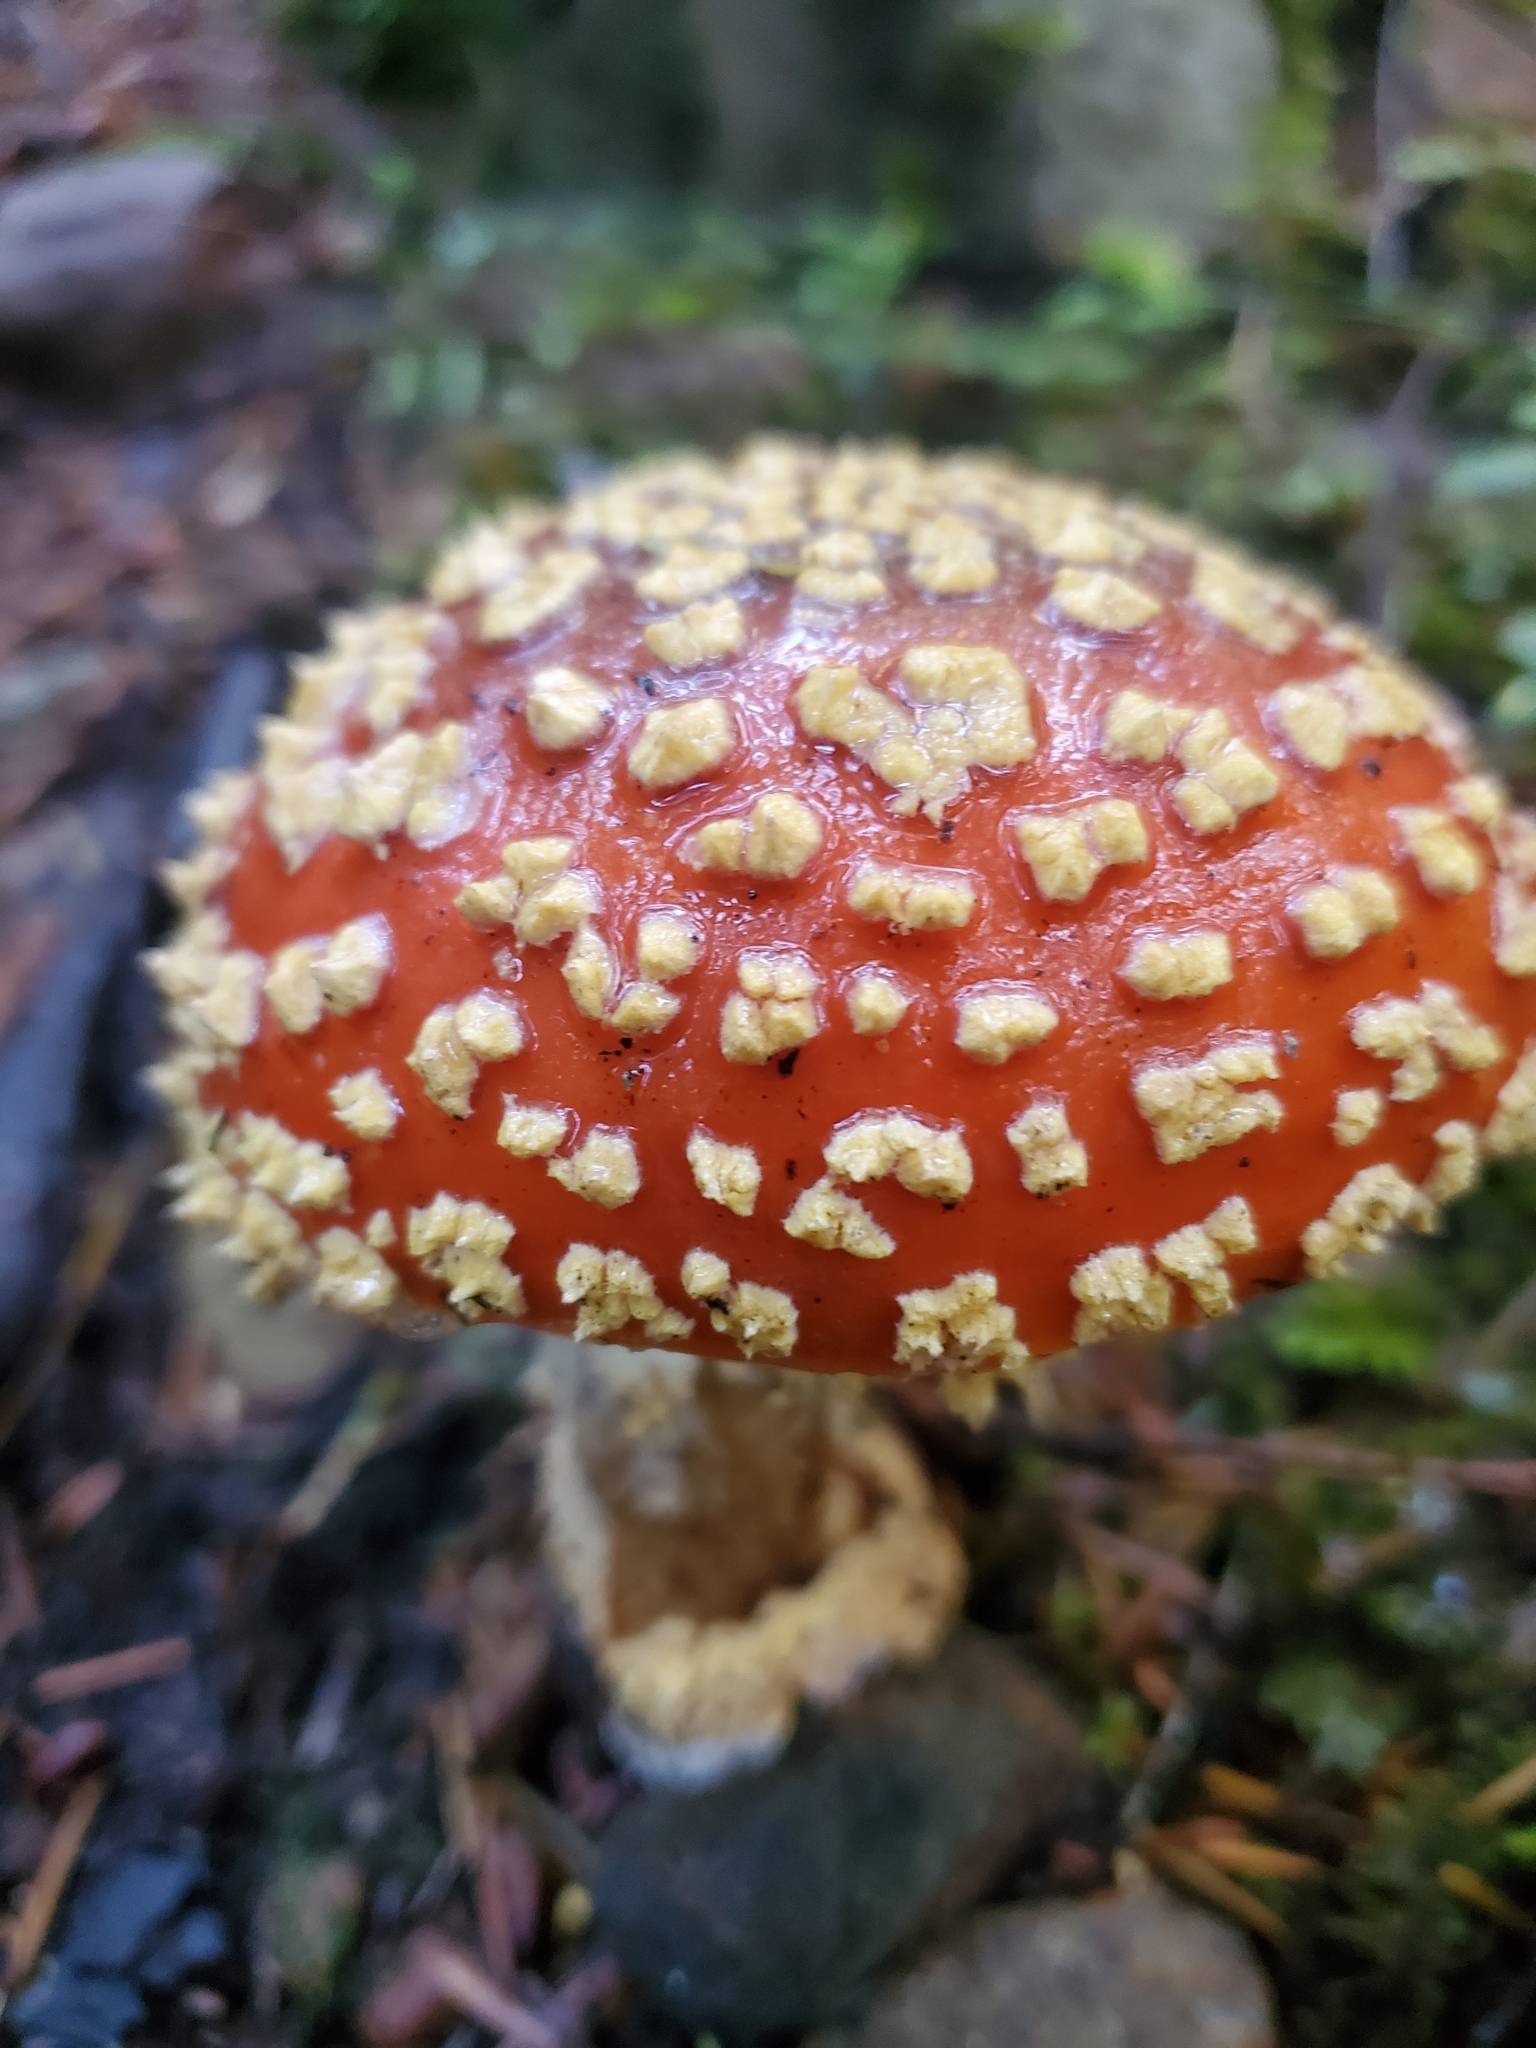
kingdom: Fungi
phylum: Basidiomycota
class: Agaricomycetes
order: Agaricales
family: Amanitaceae
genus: Amanita
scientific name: Amanita muscaria
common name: Fly agaric
